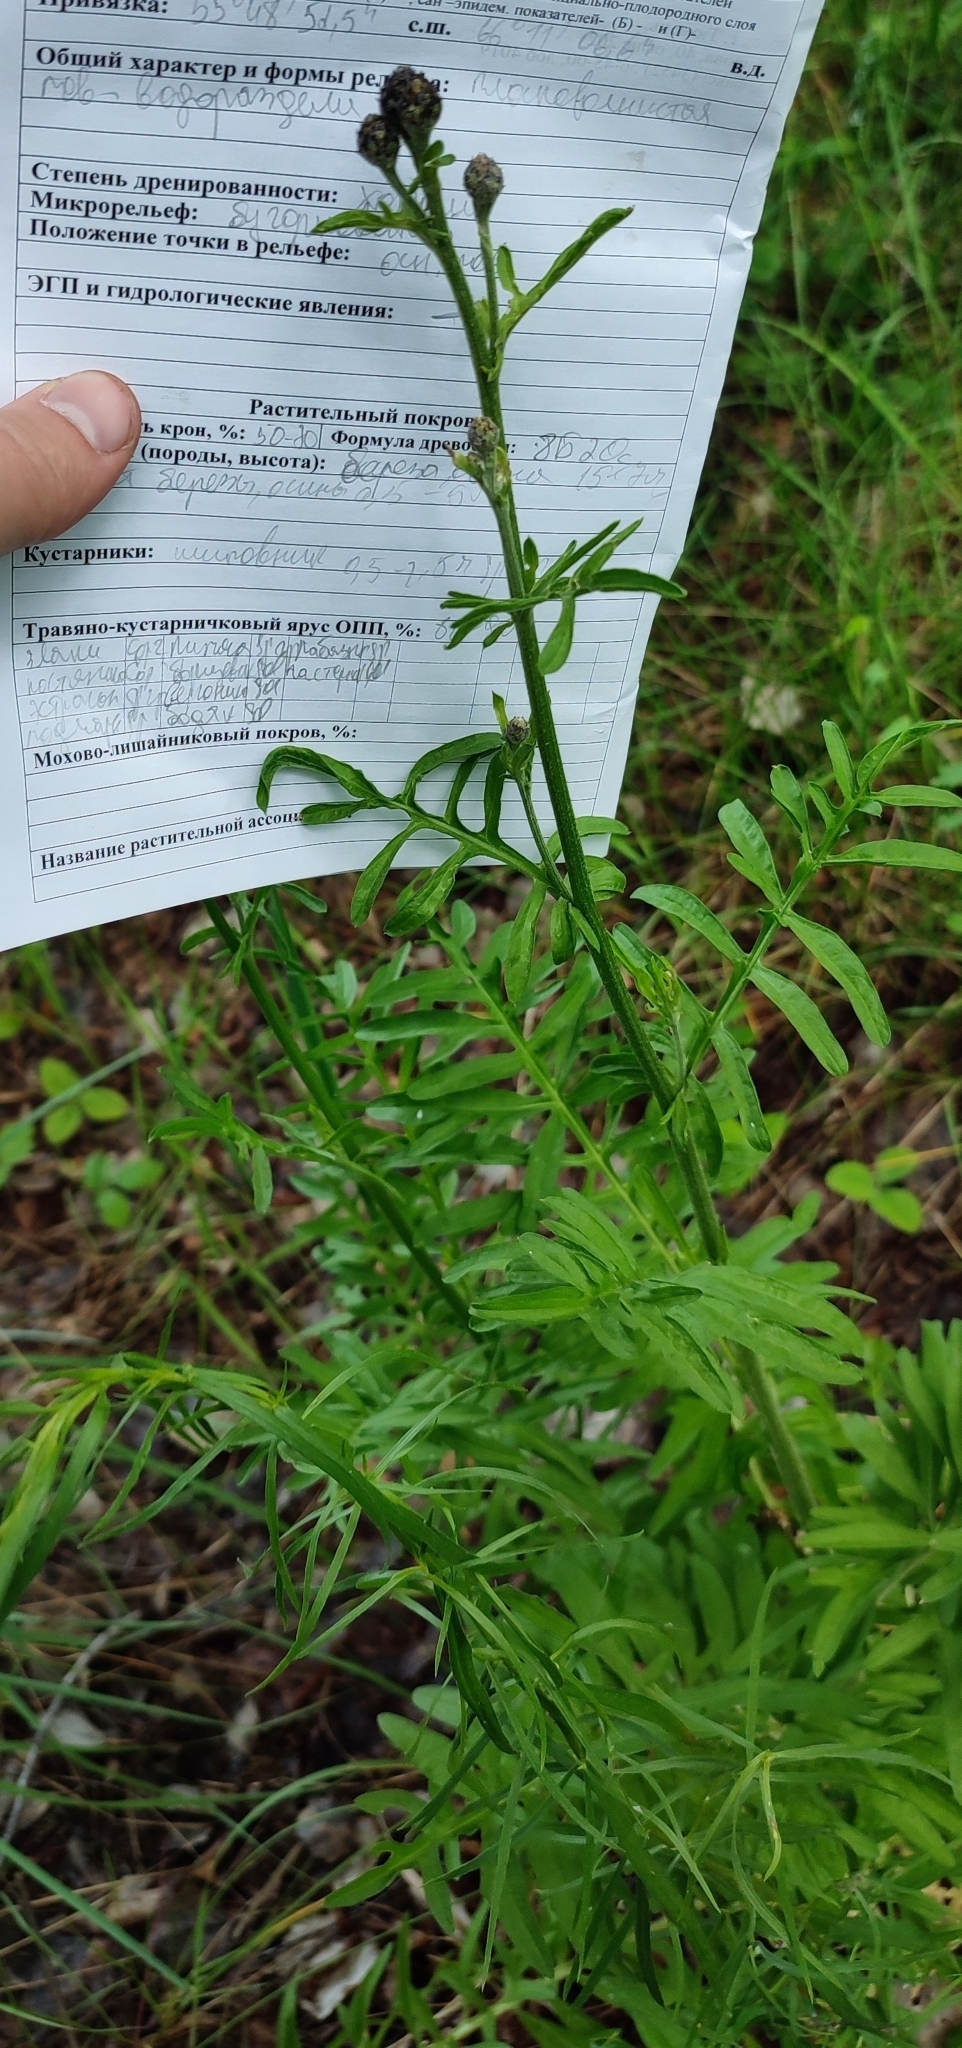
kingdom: Plantae
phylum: Tracheophyta
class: Magnoliopsida
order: Asterales
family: Asteraceae
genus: Centaurea
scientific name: Centaurea scabiosa
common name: Greater knapweed
